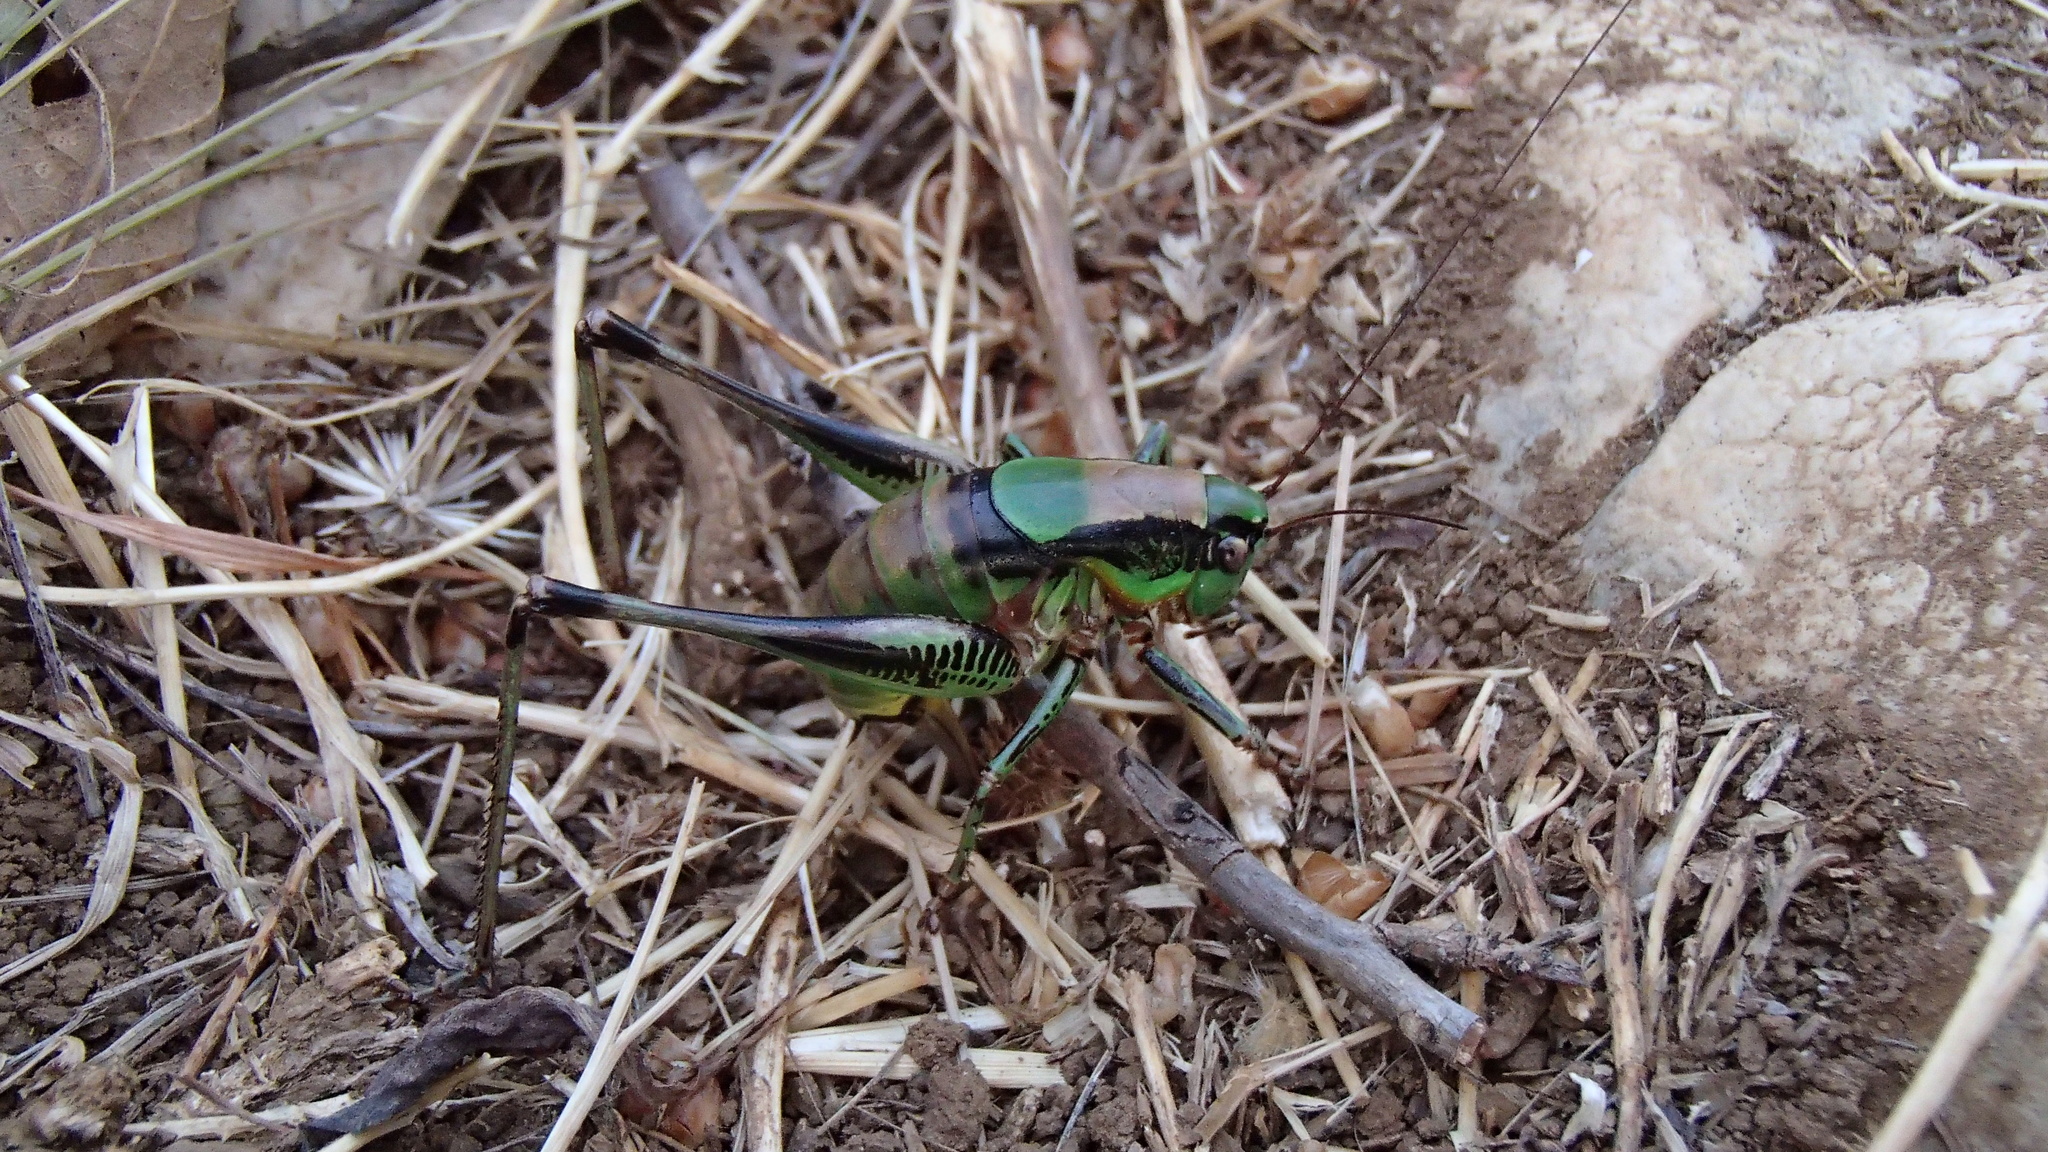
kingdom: Animalia
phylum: Arthropoda
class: Insecta
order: Orthoptera
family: Tettigoniidae
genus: Eupholidoptera
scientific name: Eupholidoptera schmidti
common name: Schmidt's marbled bush-cricket
